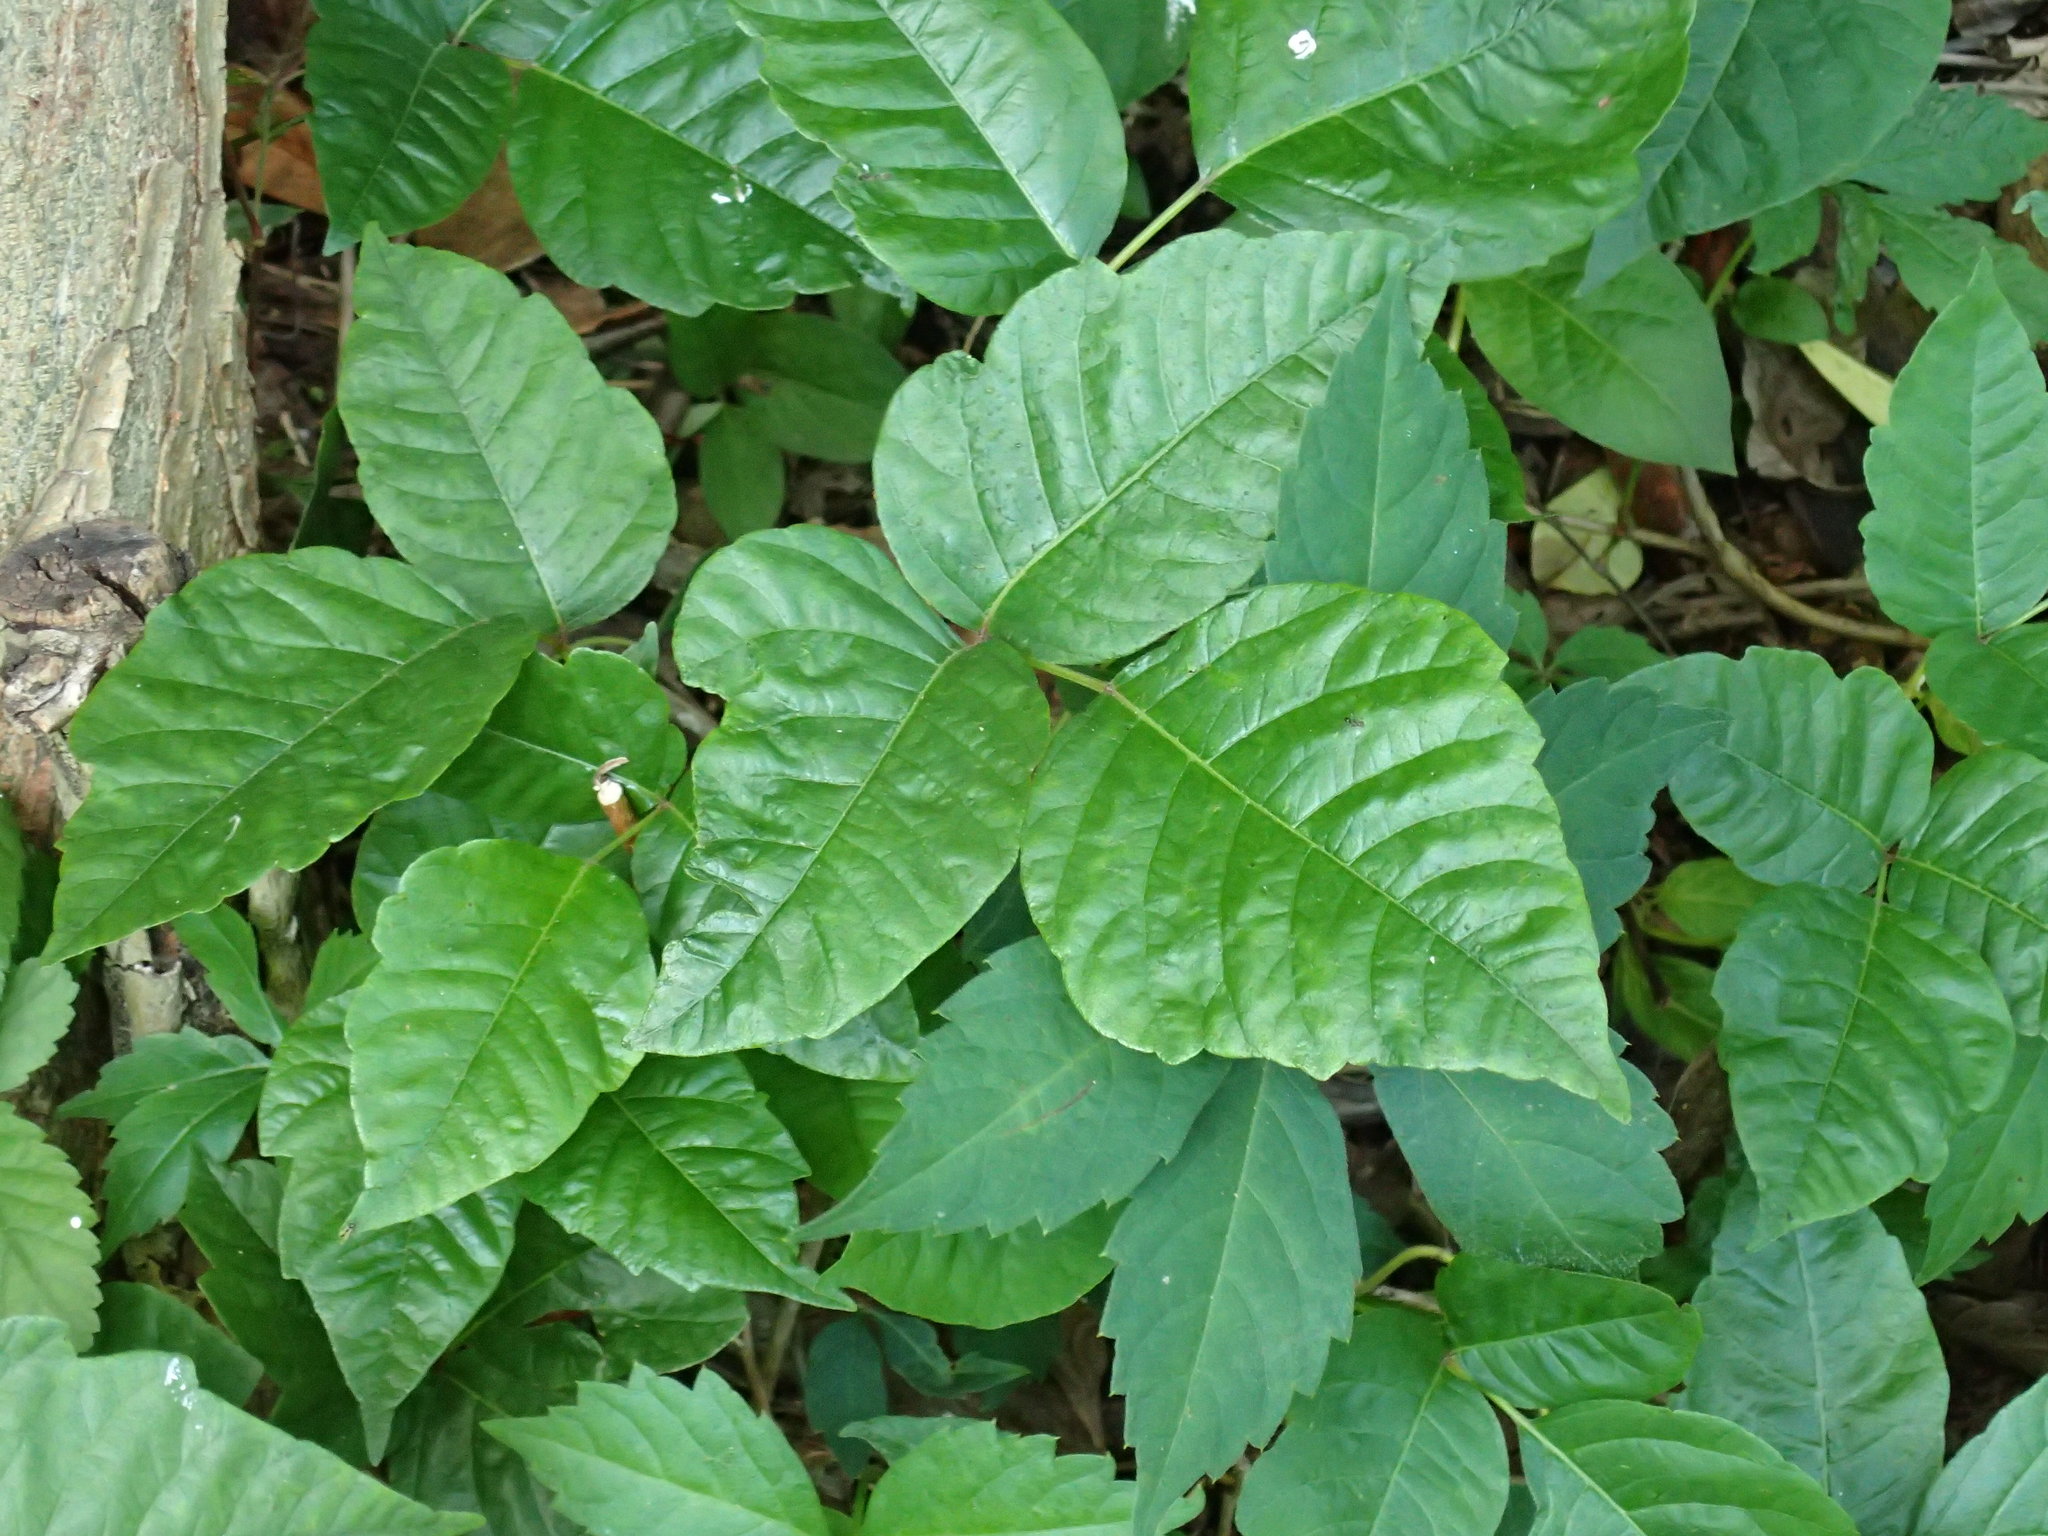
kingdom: Plantae
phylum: Tracheophyta
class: Magnoliopsida
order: Sapindales
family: Anacardiaceae
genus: Toxicodendron
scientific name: Toxicodendron radicans
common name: Poison ivy
